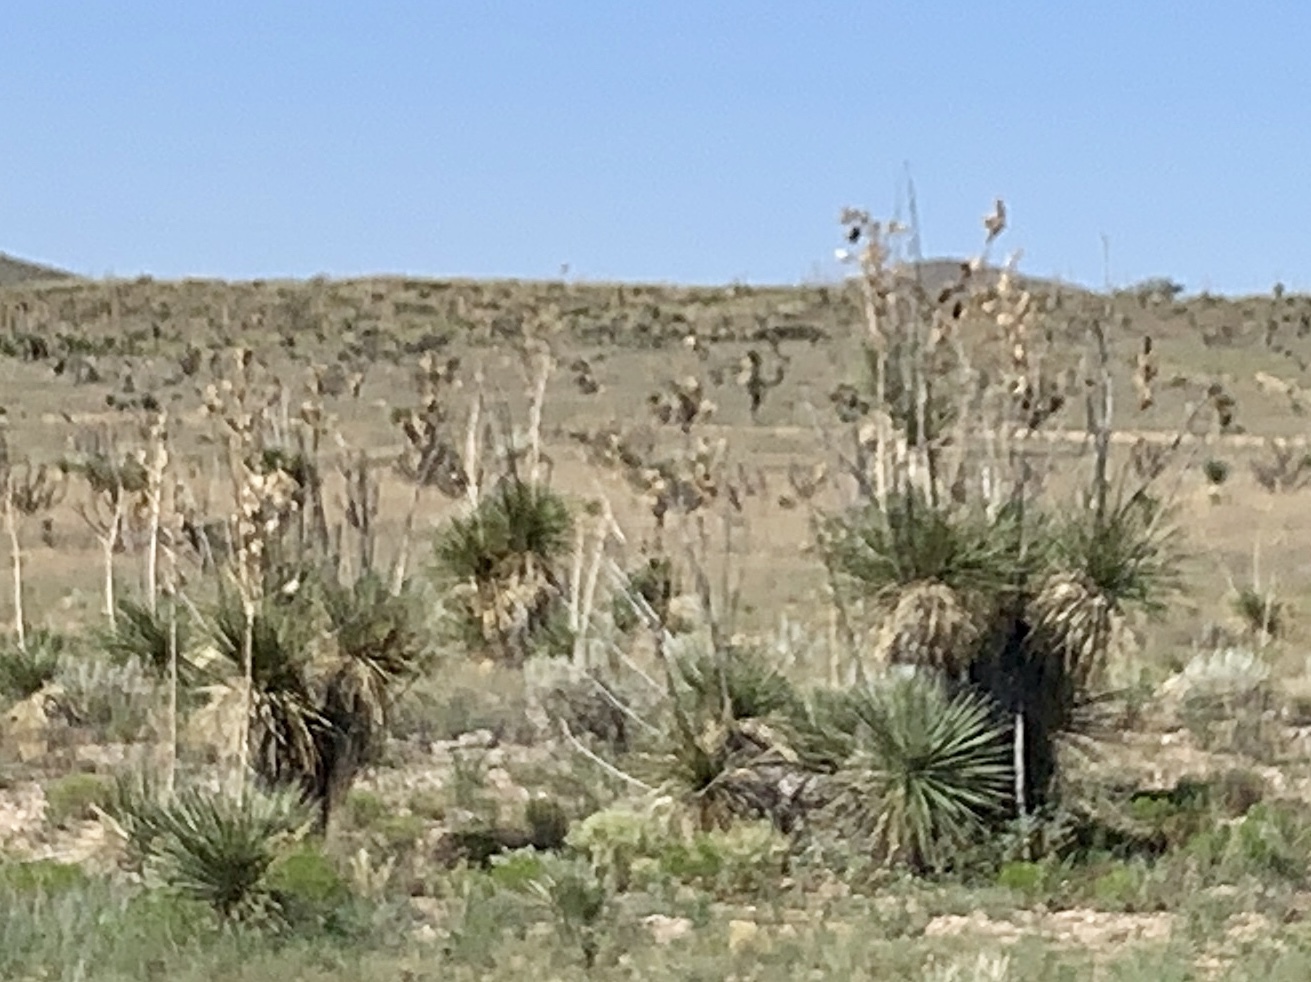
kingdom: Plantae
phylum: Tracheophyta
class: Liliopsida
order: Asparagales
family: Asparagaceae
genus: Yucca
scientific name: Yucca elata
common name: Palmella
